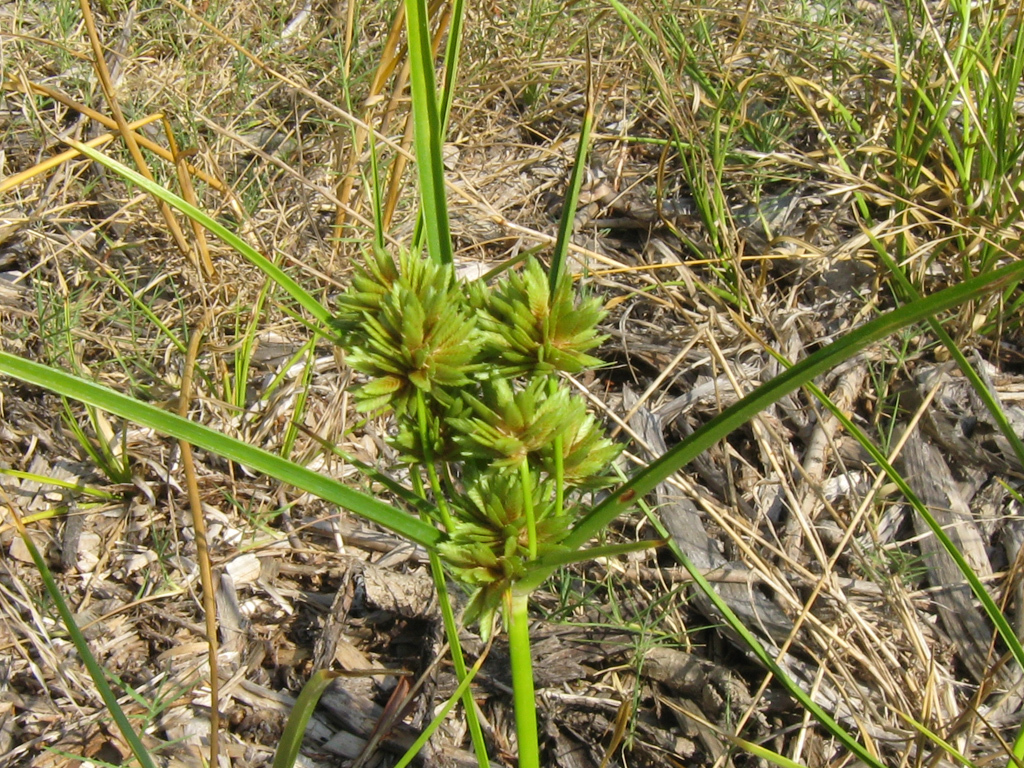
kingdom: Plantae
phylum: Tracheophyta
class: Liliopsida
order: Poales
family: Cyperaceae
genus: Cyperus
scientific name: Cyperus eragrostis
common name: Tall flatsedge
